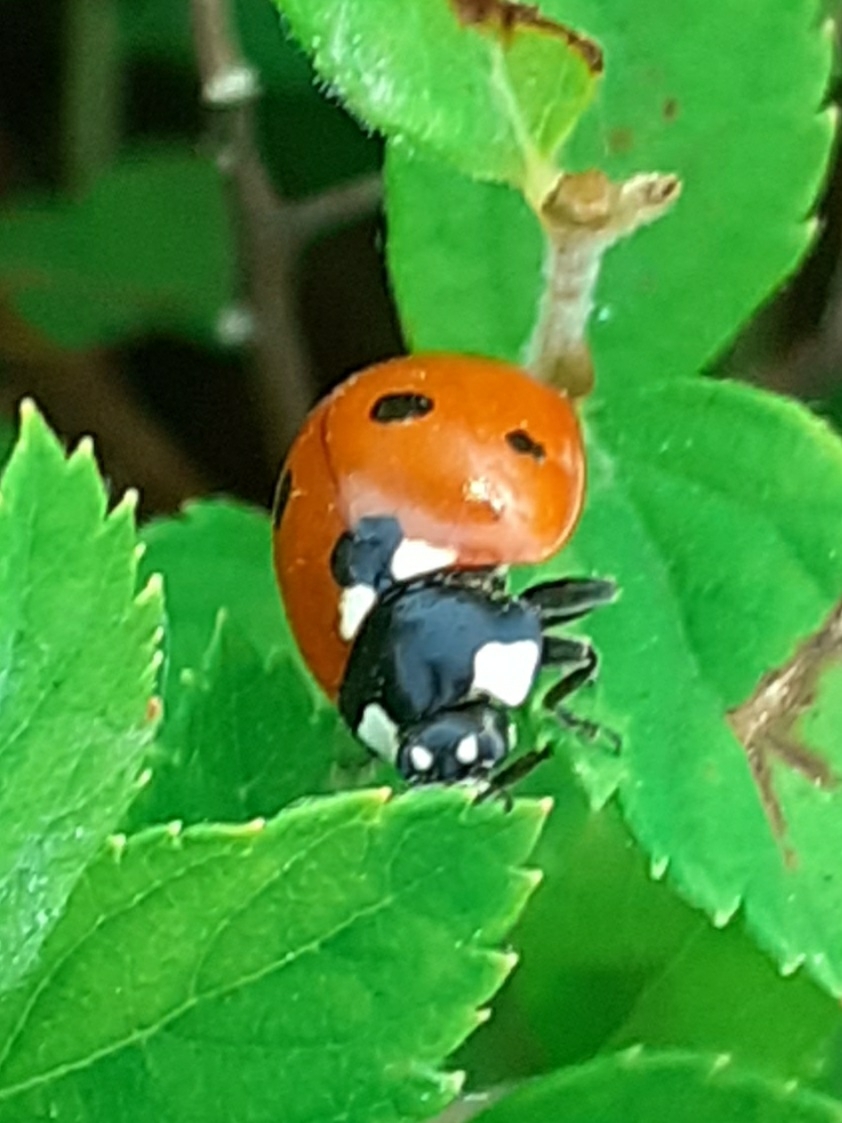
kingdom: Animalia
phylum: Arthropoda
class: Insecta
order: Coleoptera
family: Coccinellidae
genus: Coccinella
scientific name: Coccinella septempunctata
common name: Sevenspotted lady beetle
